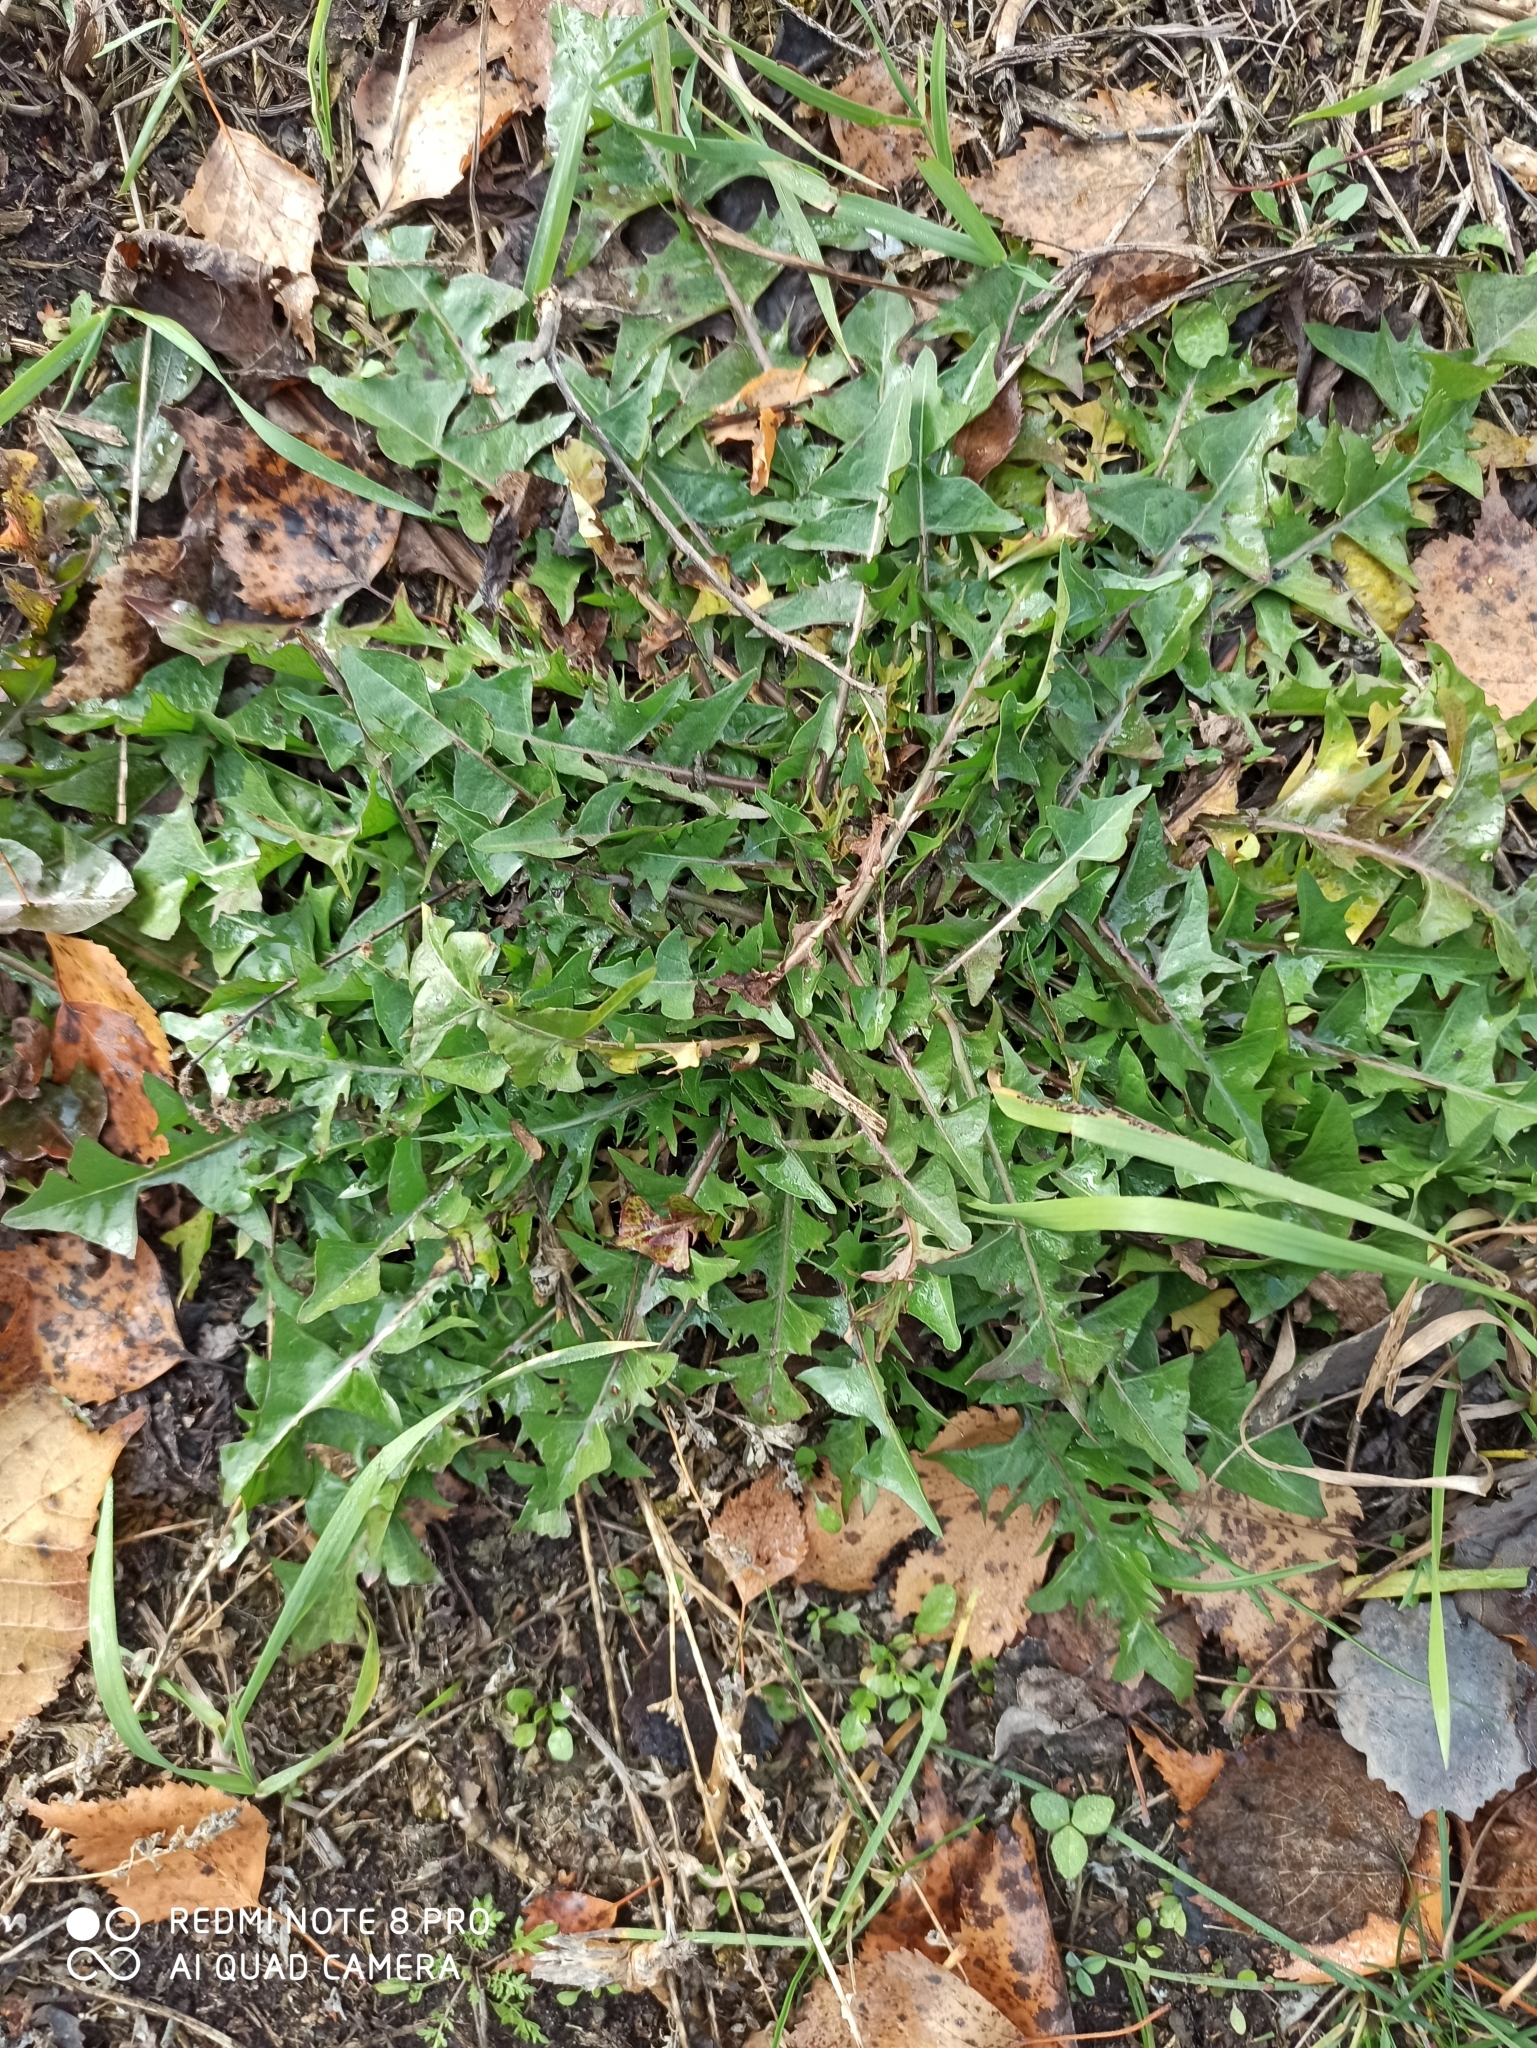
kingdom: Plantae
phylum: Tracheophyta
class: Magnoliopsida
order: Asterales
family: Asteraceae
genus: Taraxacum
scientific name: Taraxacum officinale
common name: Common dandelion
